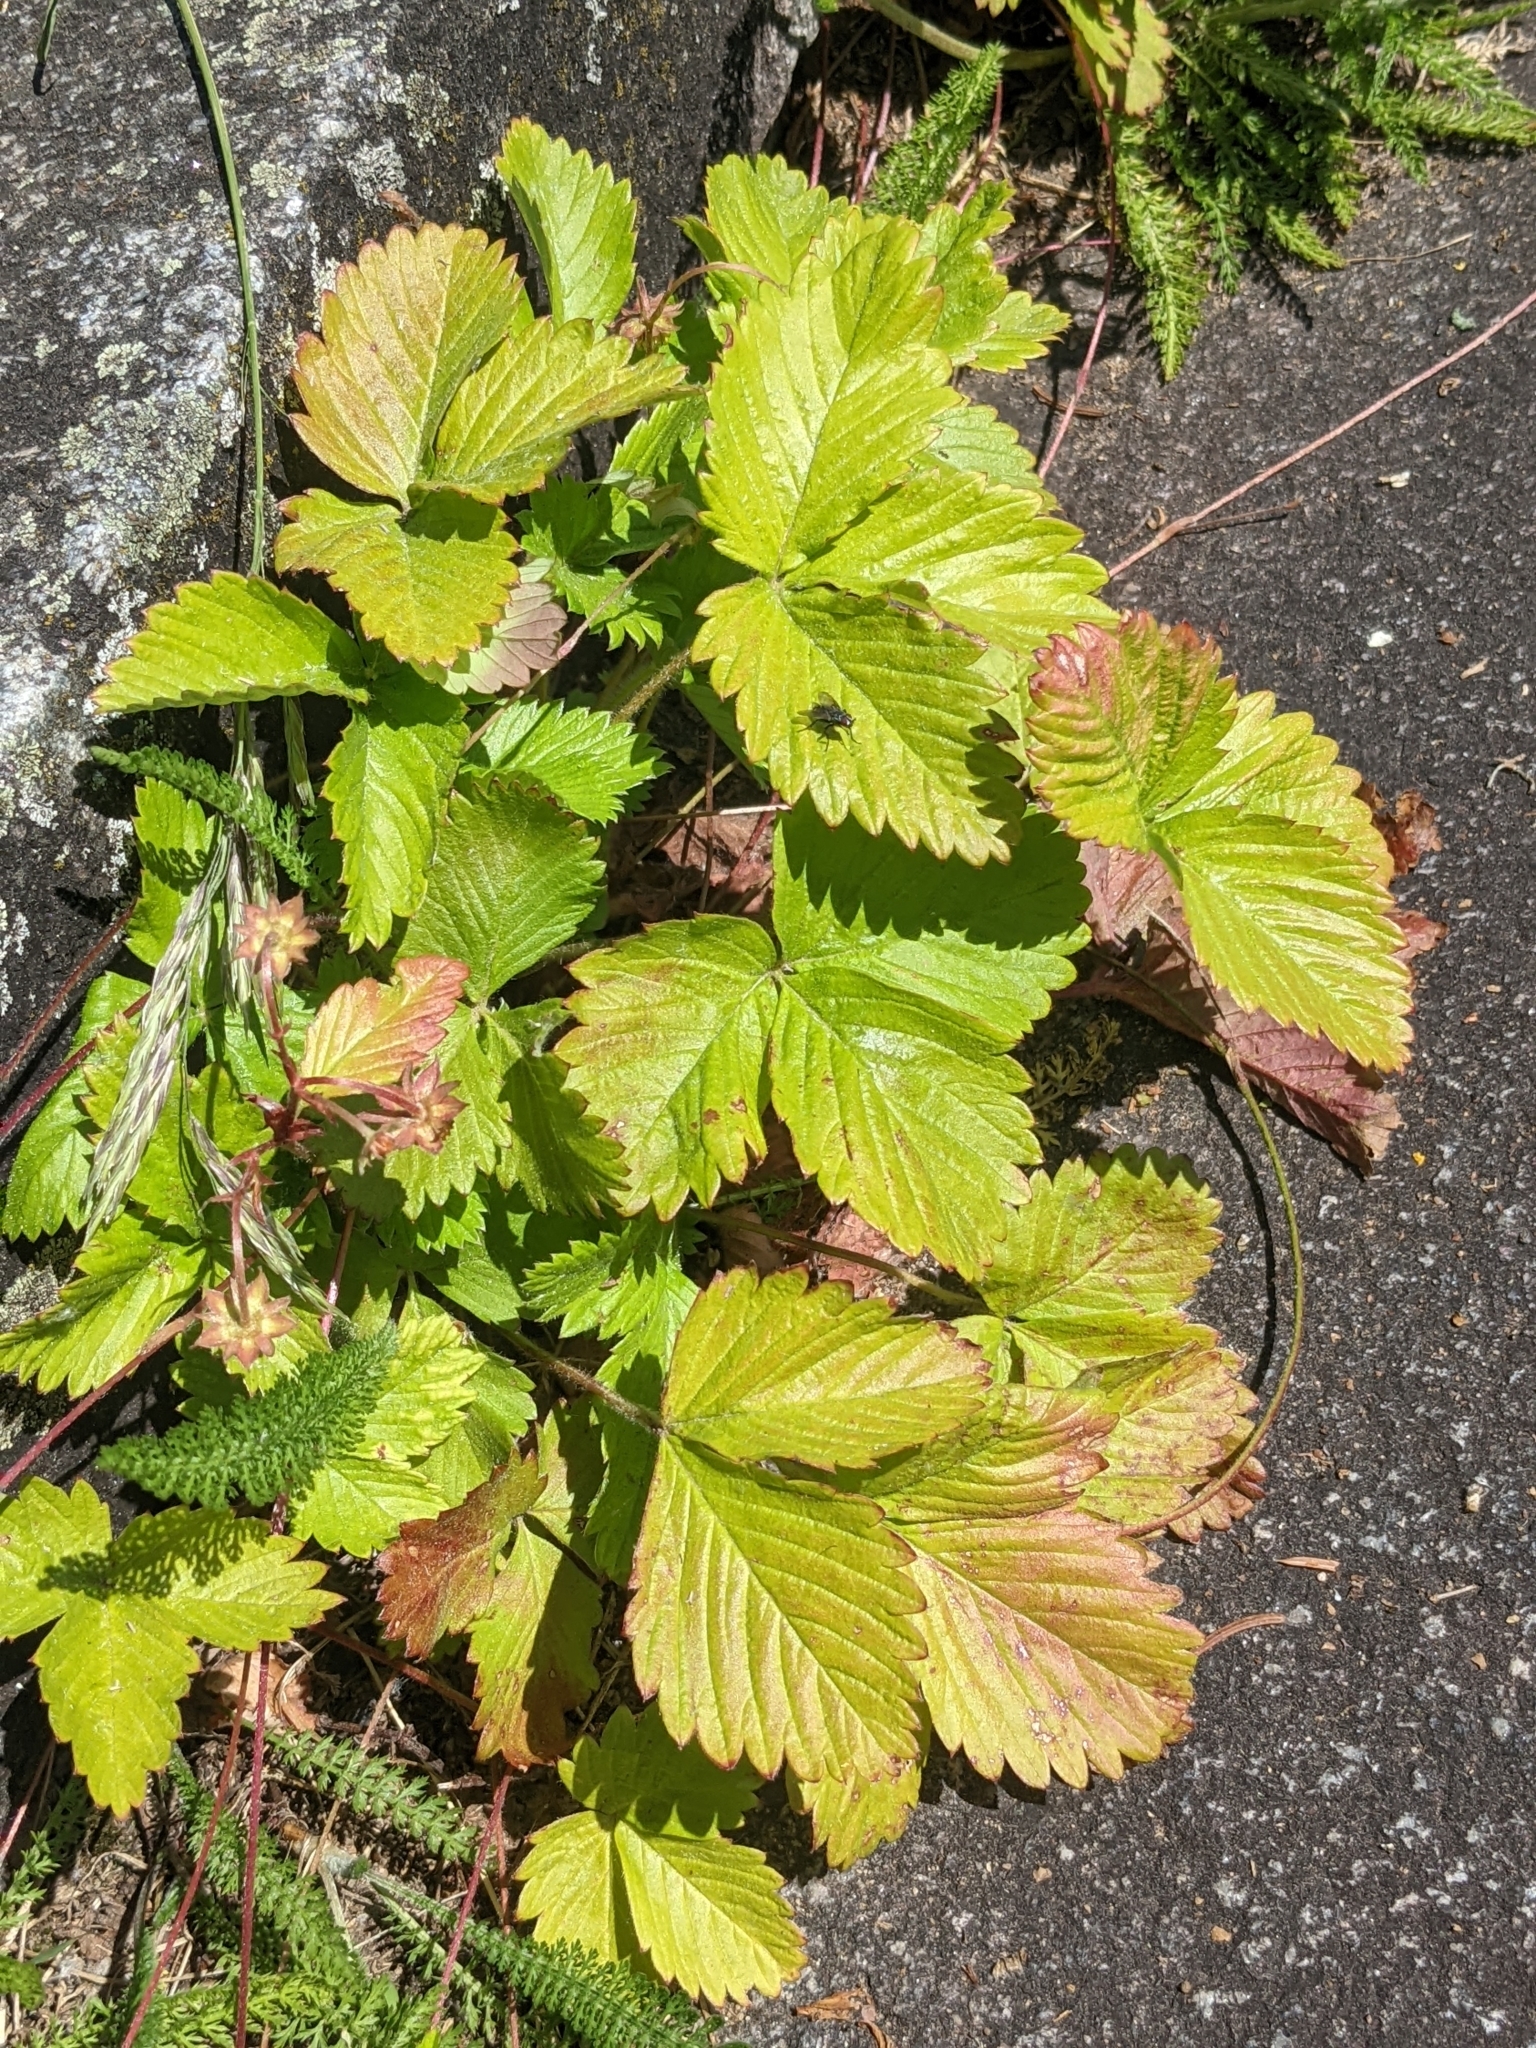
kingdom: Plantae
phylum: Tracheophyta
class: Magnoliopsida
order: Rosales
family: Rosaceae
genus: Fragaria
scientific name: Fragaria vesca
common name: Wild strawberry
